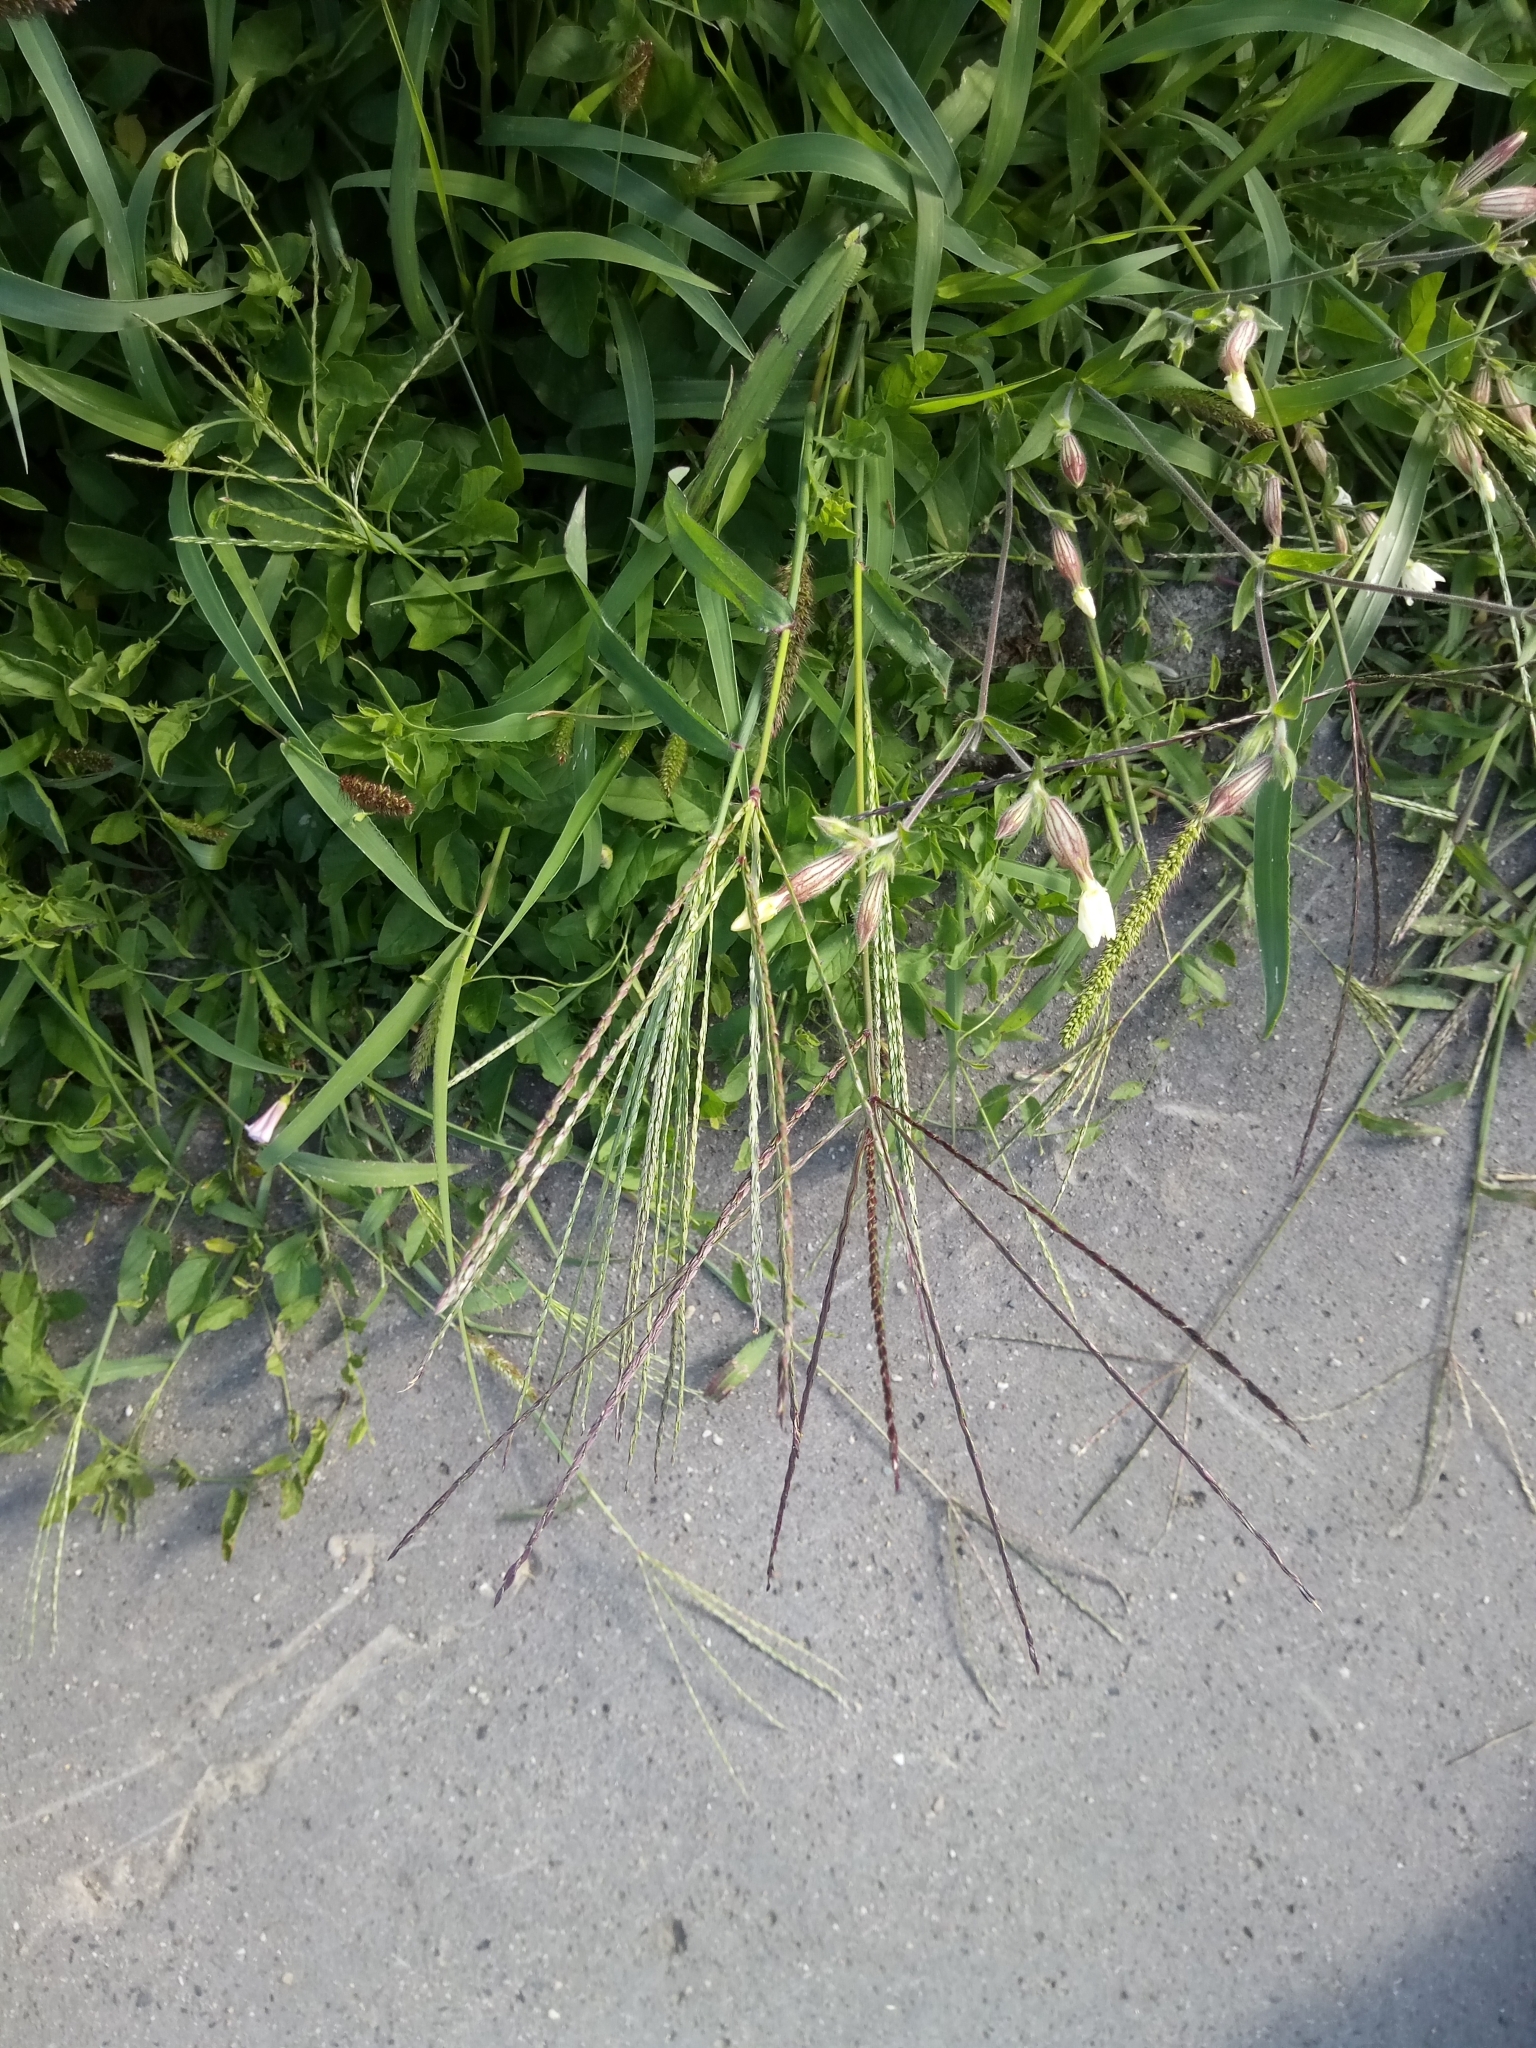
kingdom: Plantae
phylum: Tracheophyta
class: Liliopsida
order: Poales
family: Poaceae
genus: Digitaria
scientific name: Digitaria sanguinalis
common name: Hairy crabgrass
